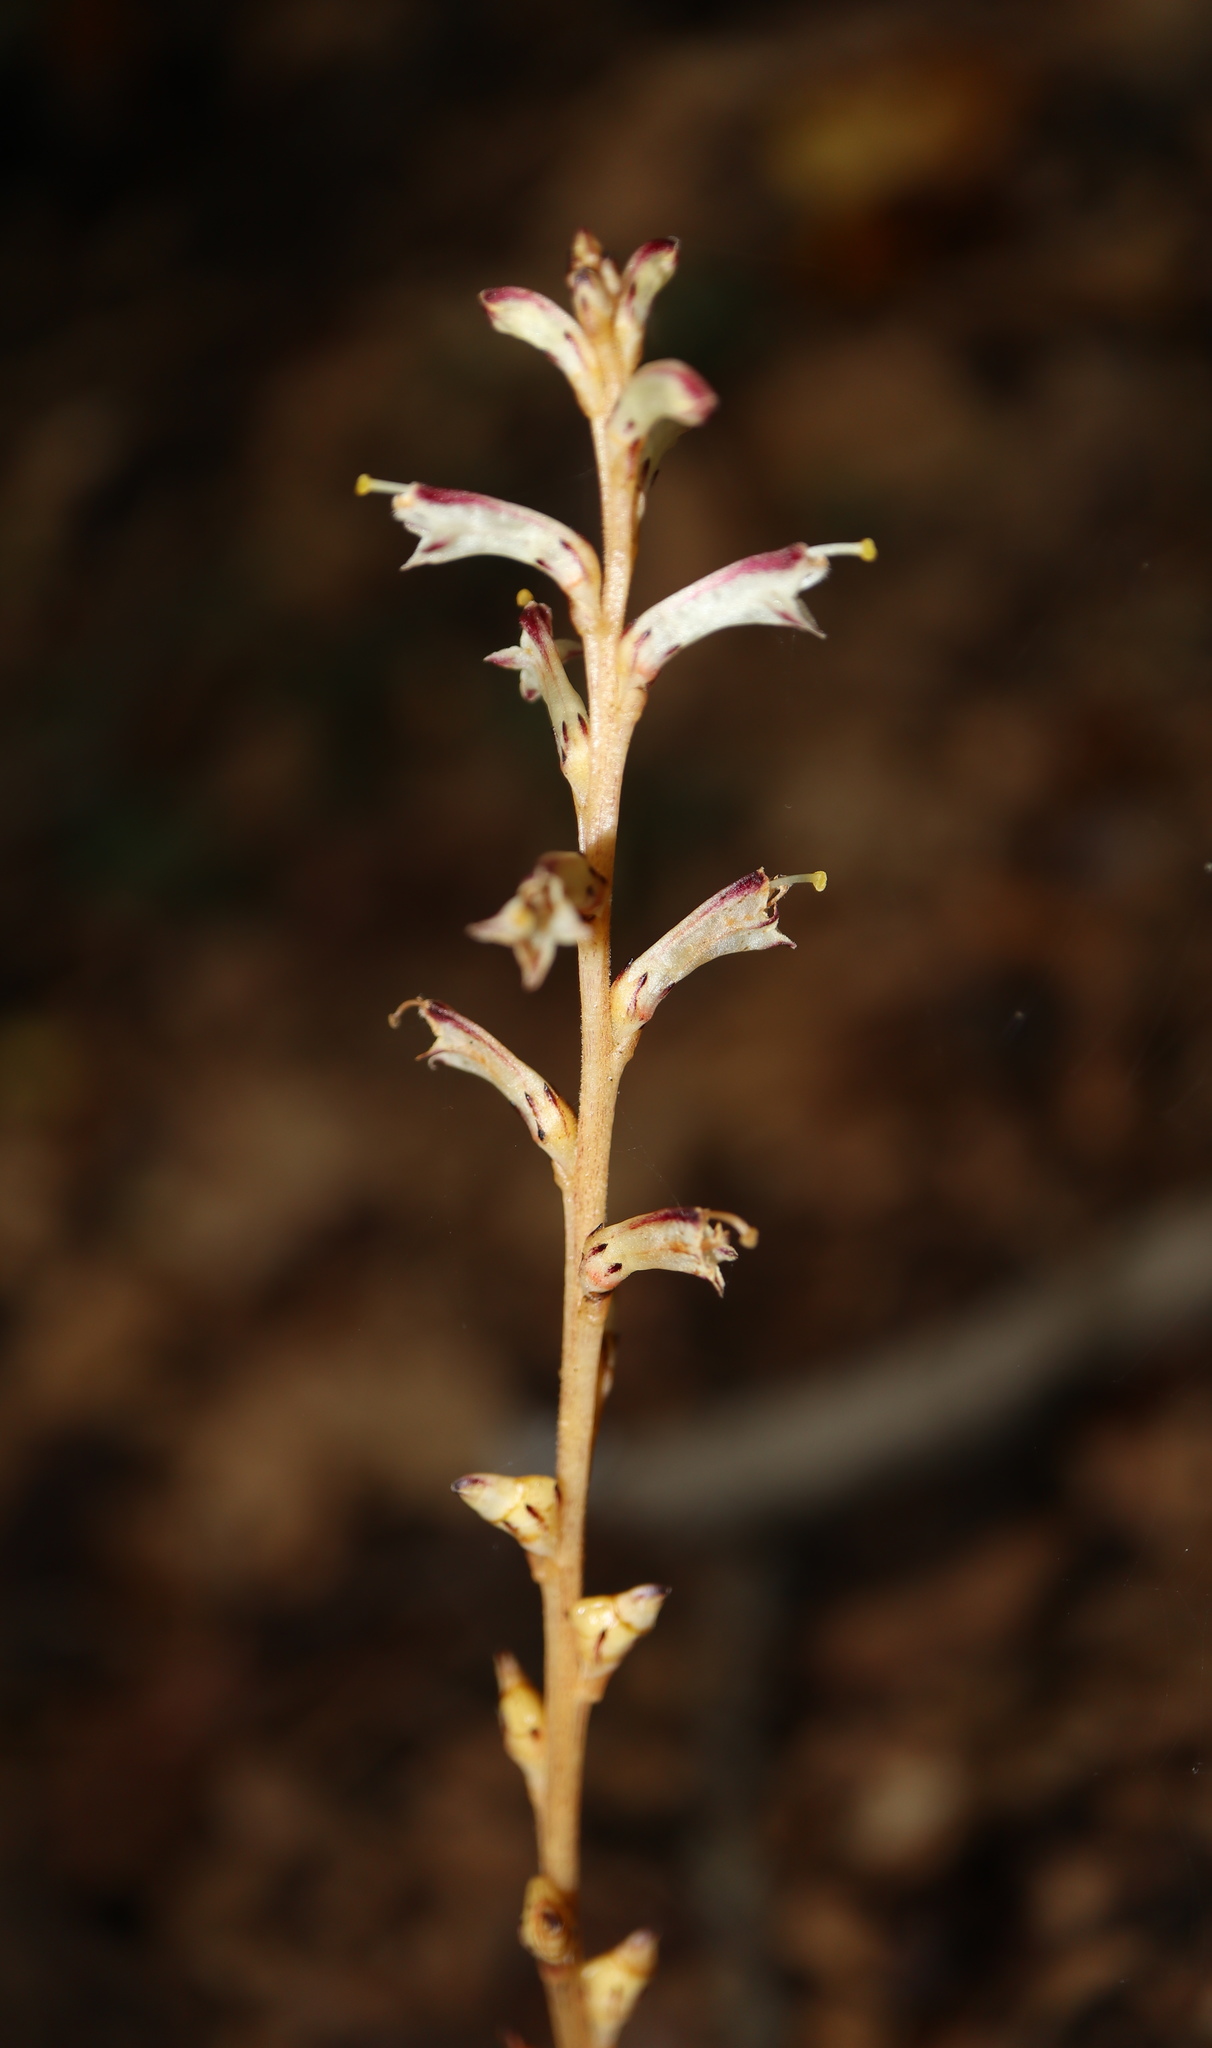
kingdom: Plantae
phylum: Tracheophyta
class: Magnoliopsida
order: Lamiales
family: Orobanchaceae
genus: Epifagus
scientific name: Epifagus virginiana
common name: Beechdrops
